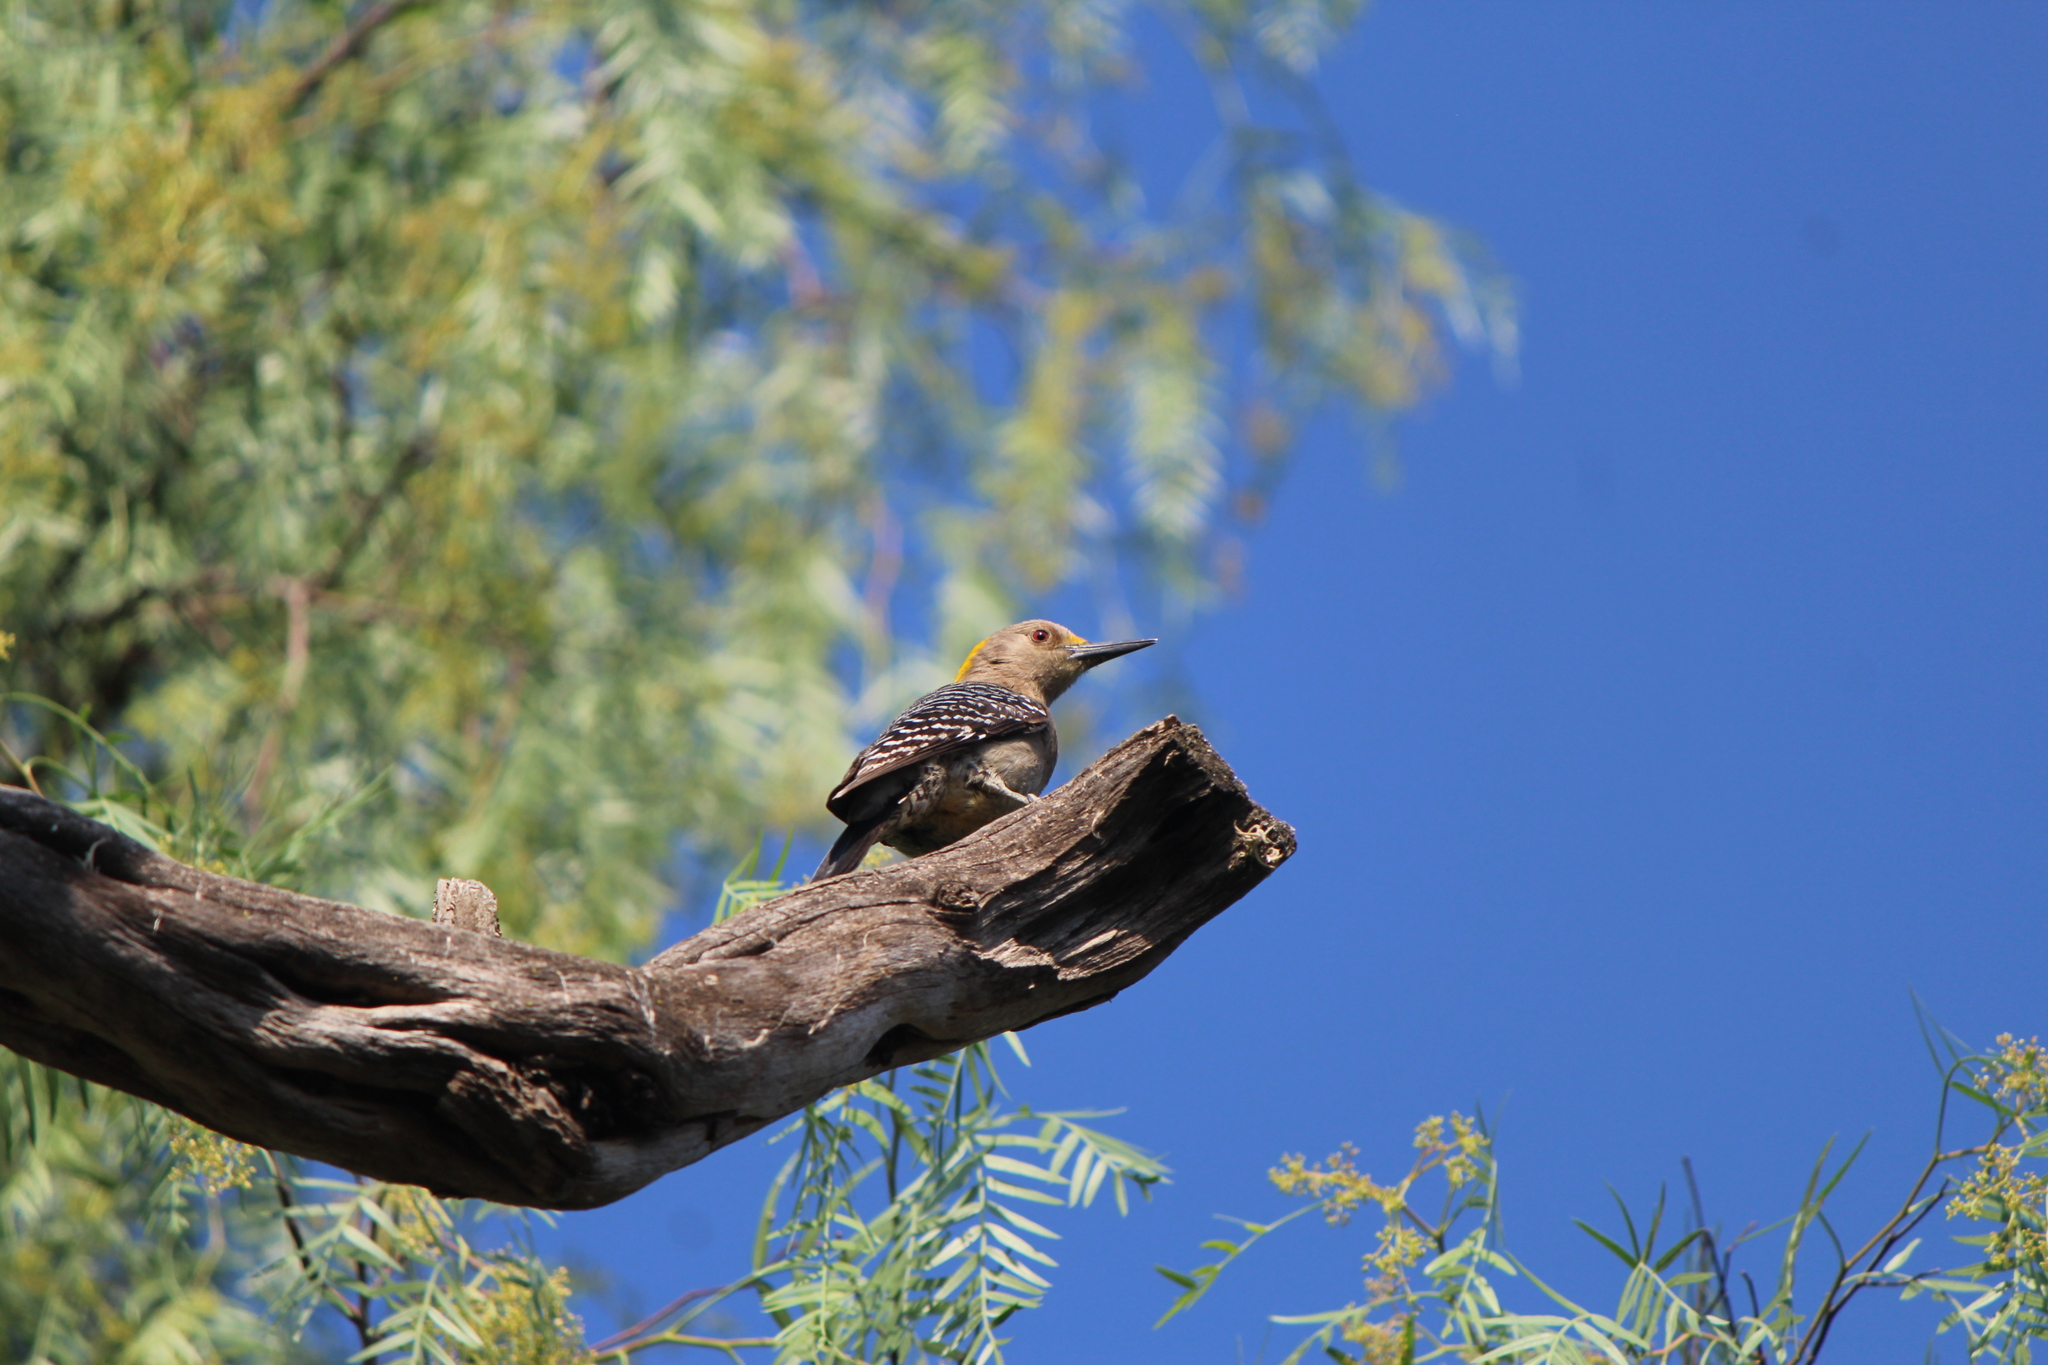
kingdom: Animalia
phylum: Chordata
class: Aves
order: Piciformes
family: Picidae
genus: Melanerpes
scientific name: Melanerpes aurifrons
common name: Golden-fronted woodpecker
